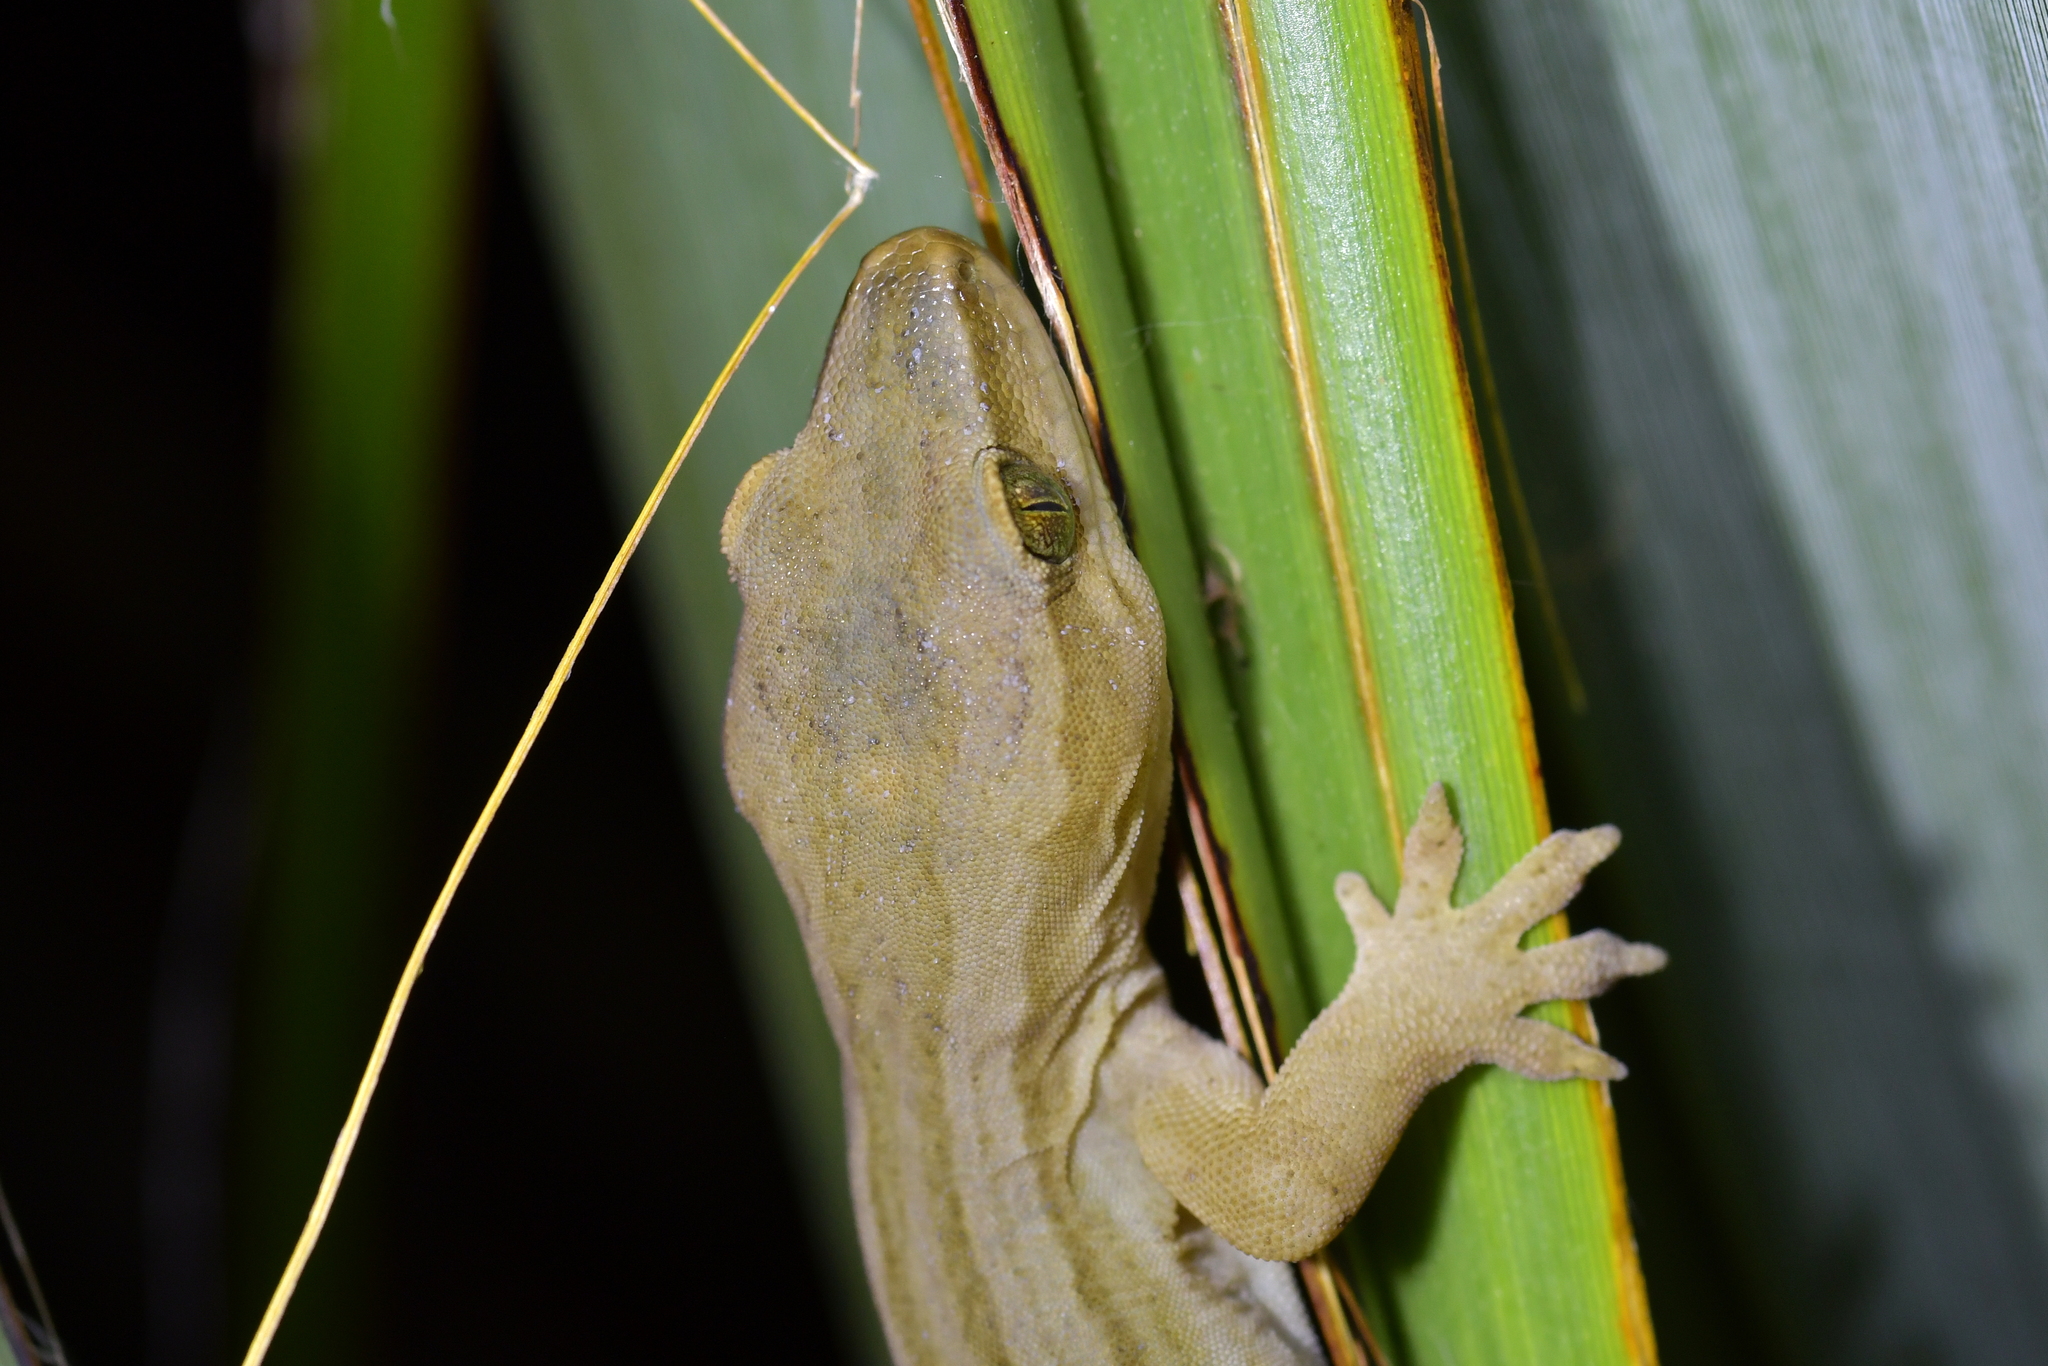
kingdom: Animalia
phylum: Chordata
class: Squamata
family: Diplodactylidae
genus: Woodworthia
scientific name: Woodworthia chrysosiretica
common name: Gold-striped gecko
